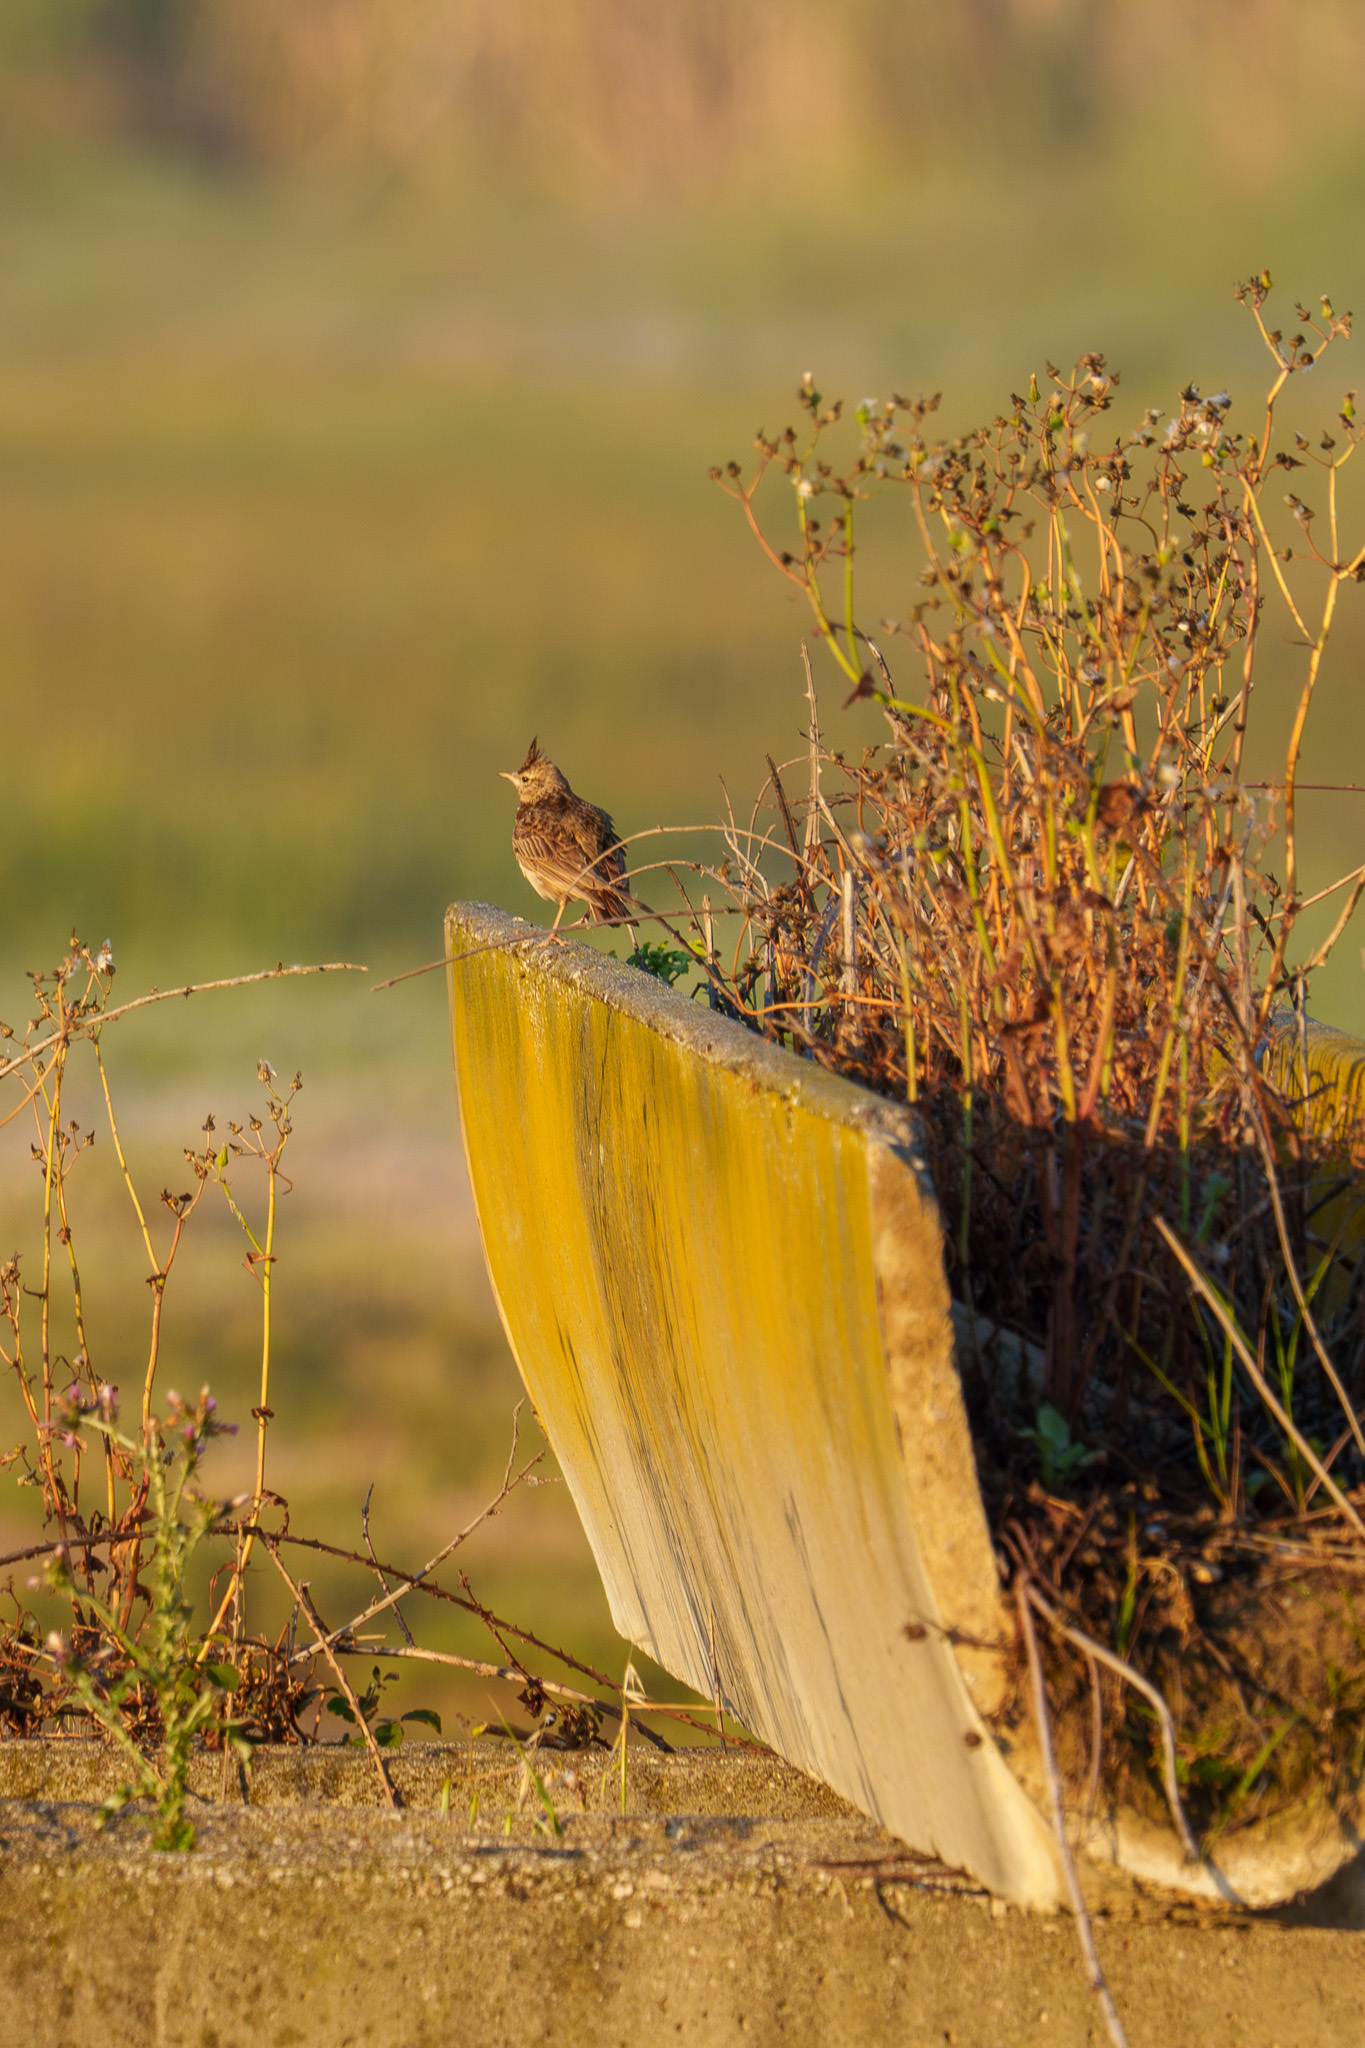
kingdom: Animalia
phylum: Chordata
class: Aves
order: Passeriformes
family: Alaudidae
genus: Galerida
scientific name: Galerida cristata
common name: Crested lark
